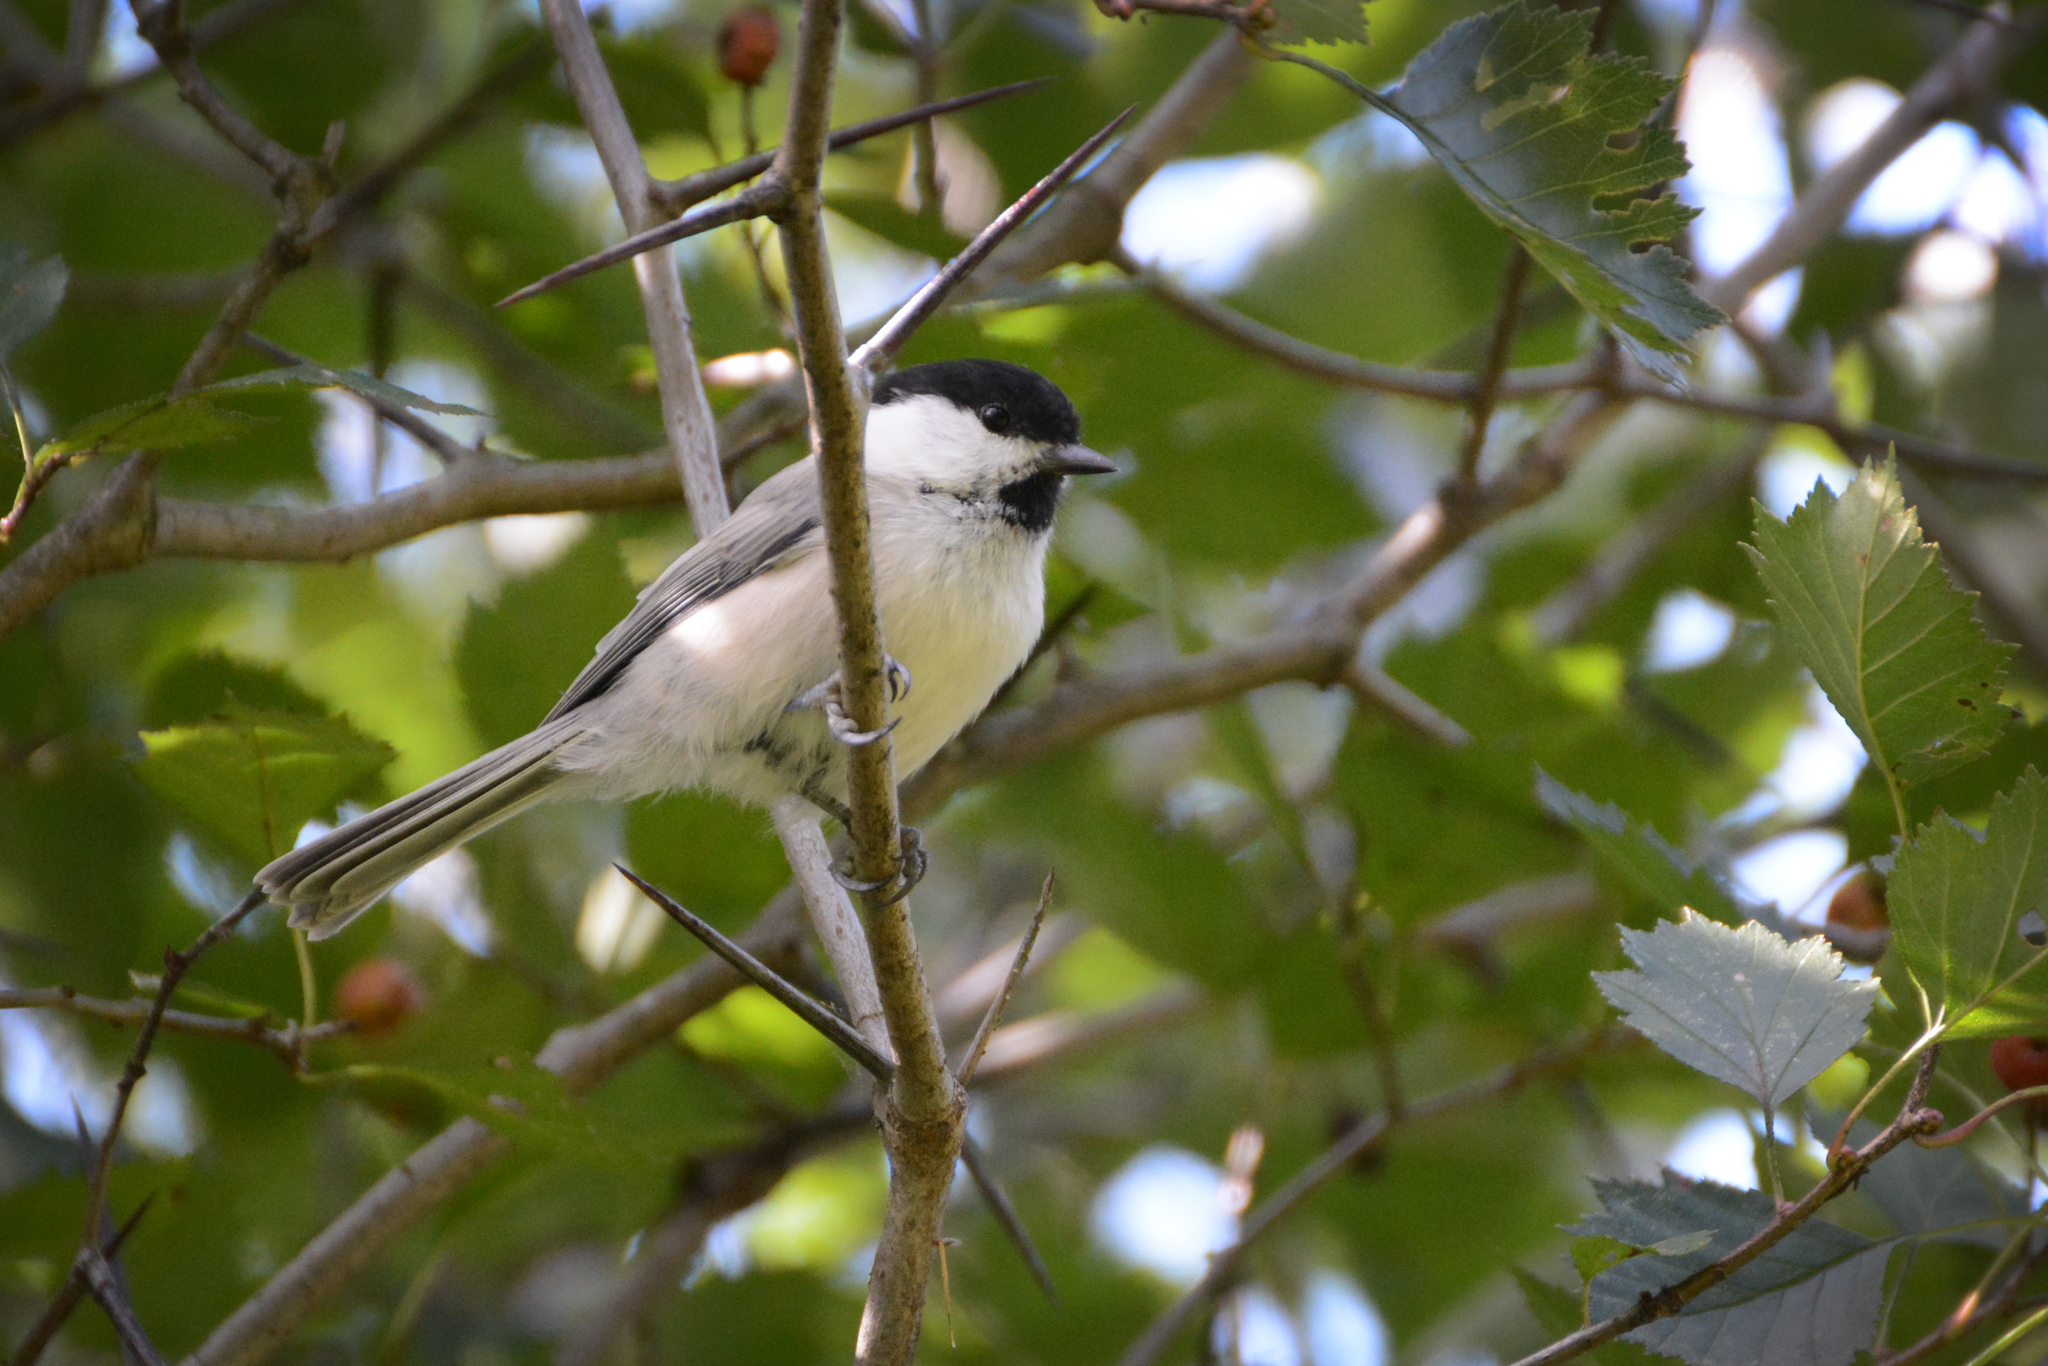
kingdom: Animalia
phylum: Chordata
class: Aves
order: Passeriformes
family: Paridae
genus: Poecile
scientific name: Poecile montanus
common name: Willow tit
